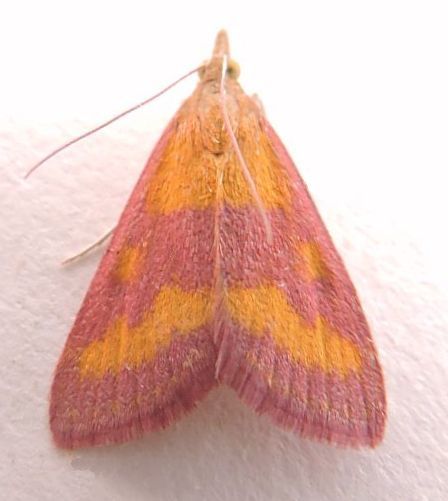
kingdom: Animalia
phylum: Arthropoda
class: Insecta
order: Lepidoptera
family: Crambidae
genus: Pyrausta
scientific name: Pyrausta laticlavia
